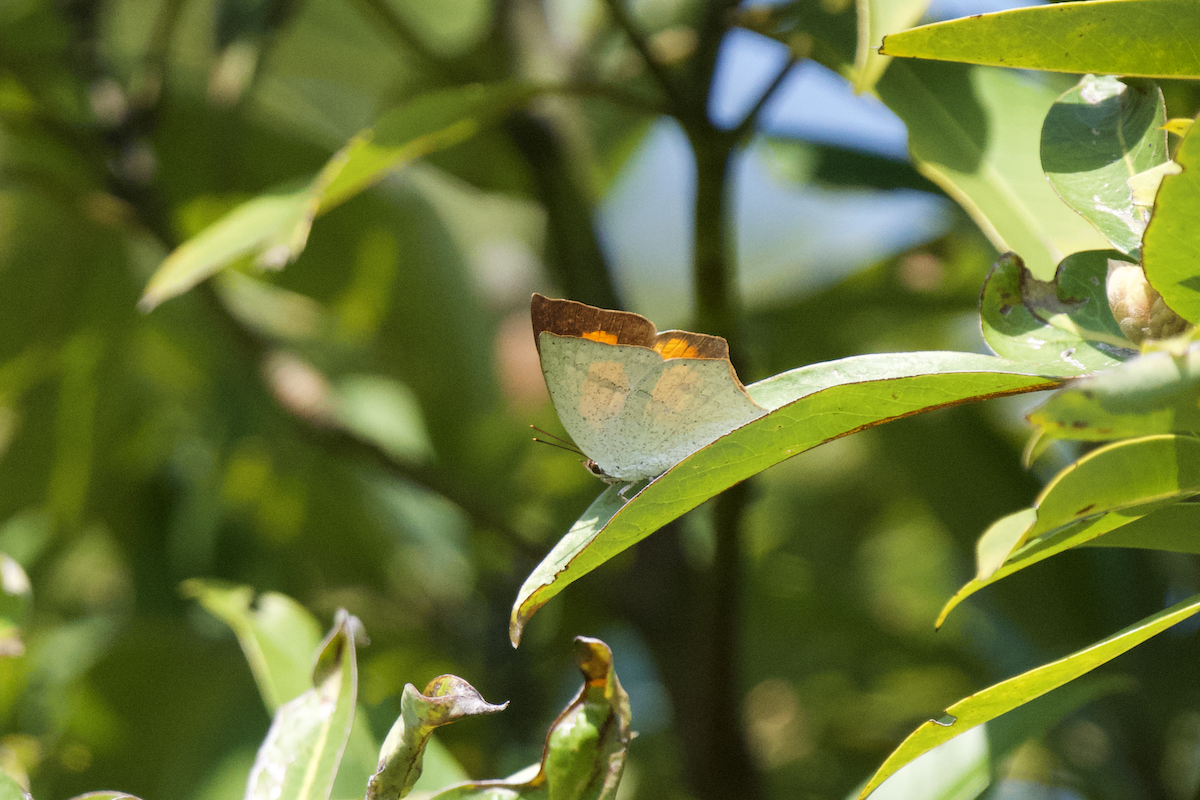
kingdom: Animalia
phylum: Arthropoda
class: Insecta
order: Lepidoptera
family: Lycaenidae
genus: Curetis
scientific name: Curetis acuta
